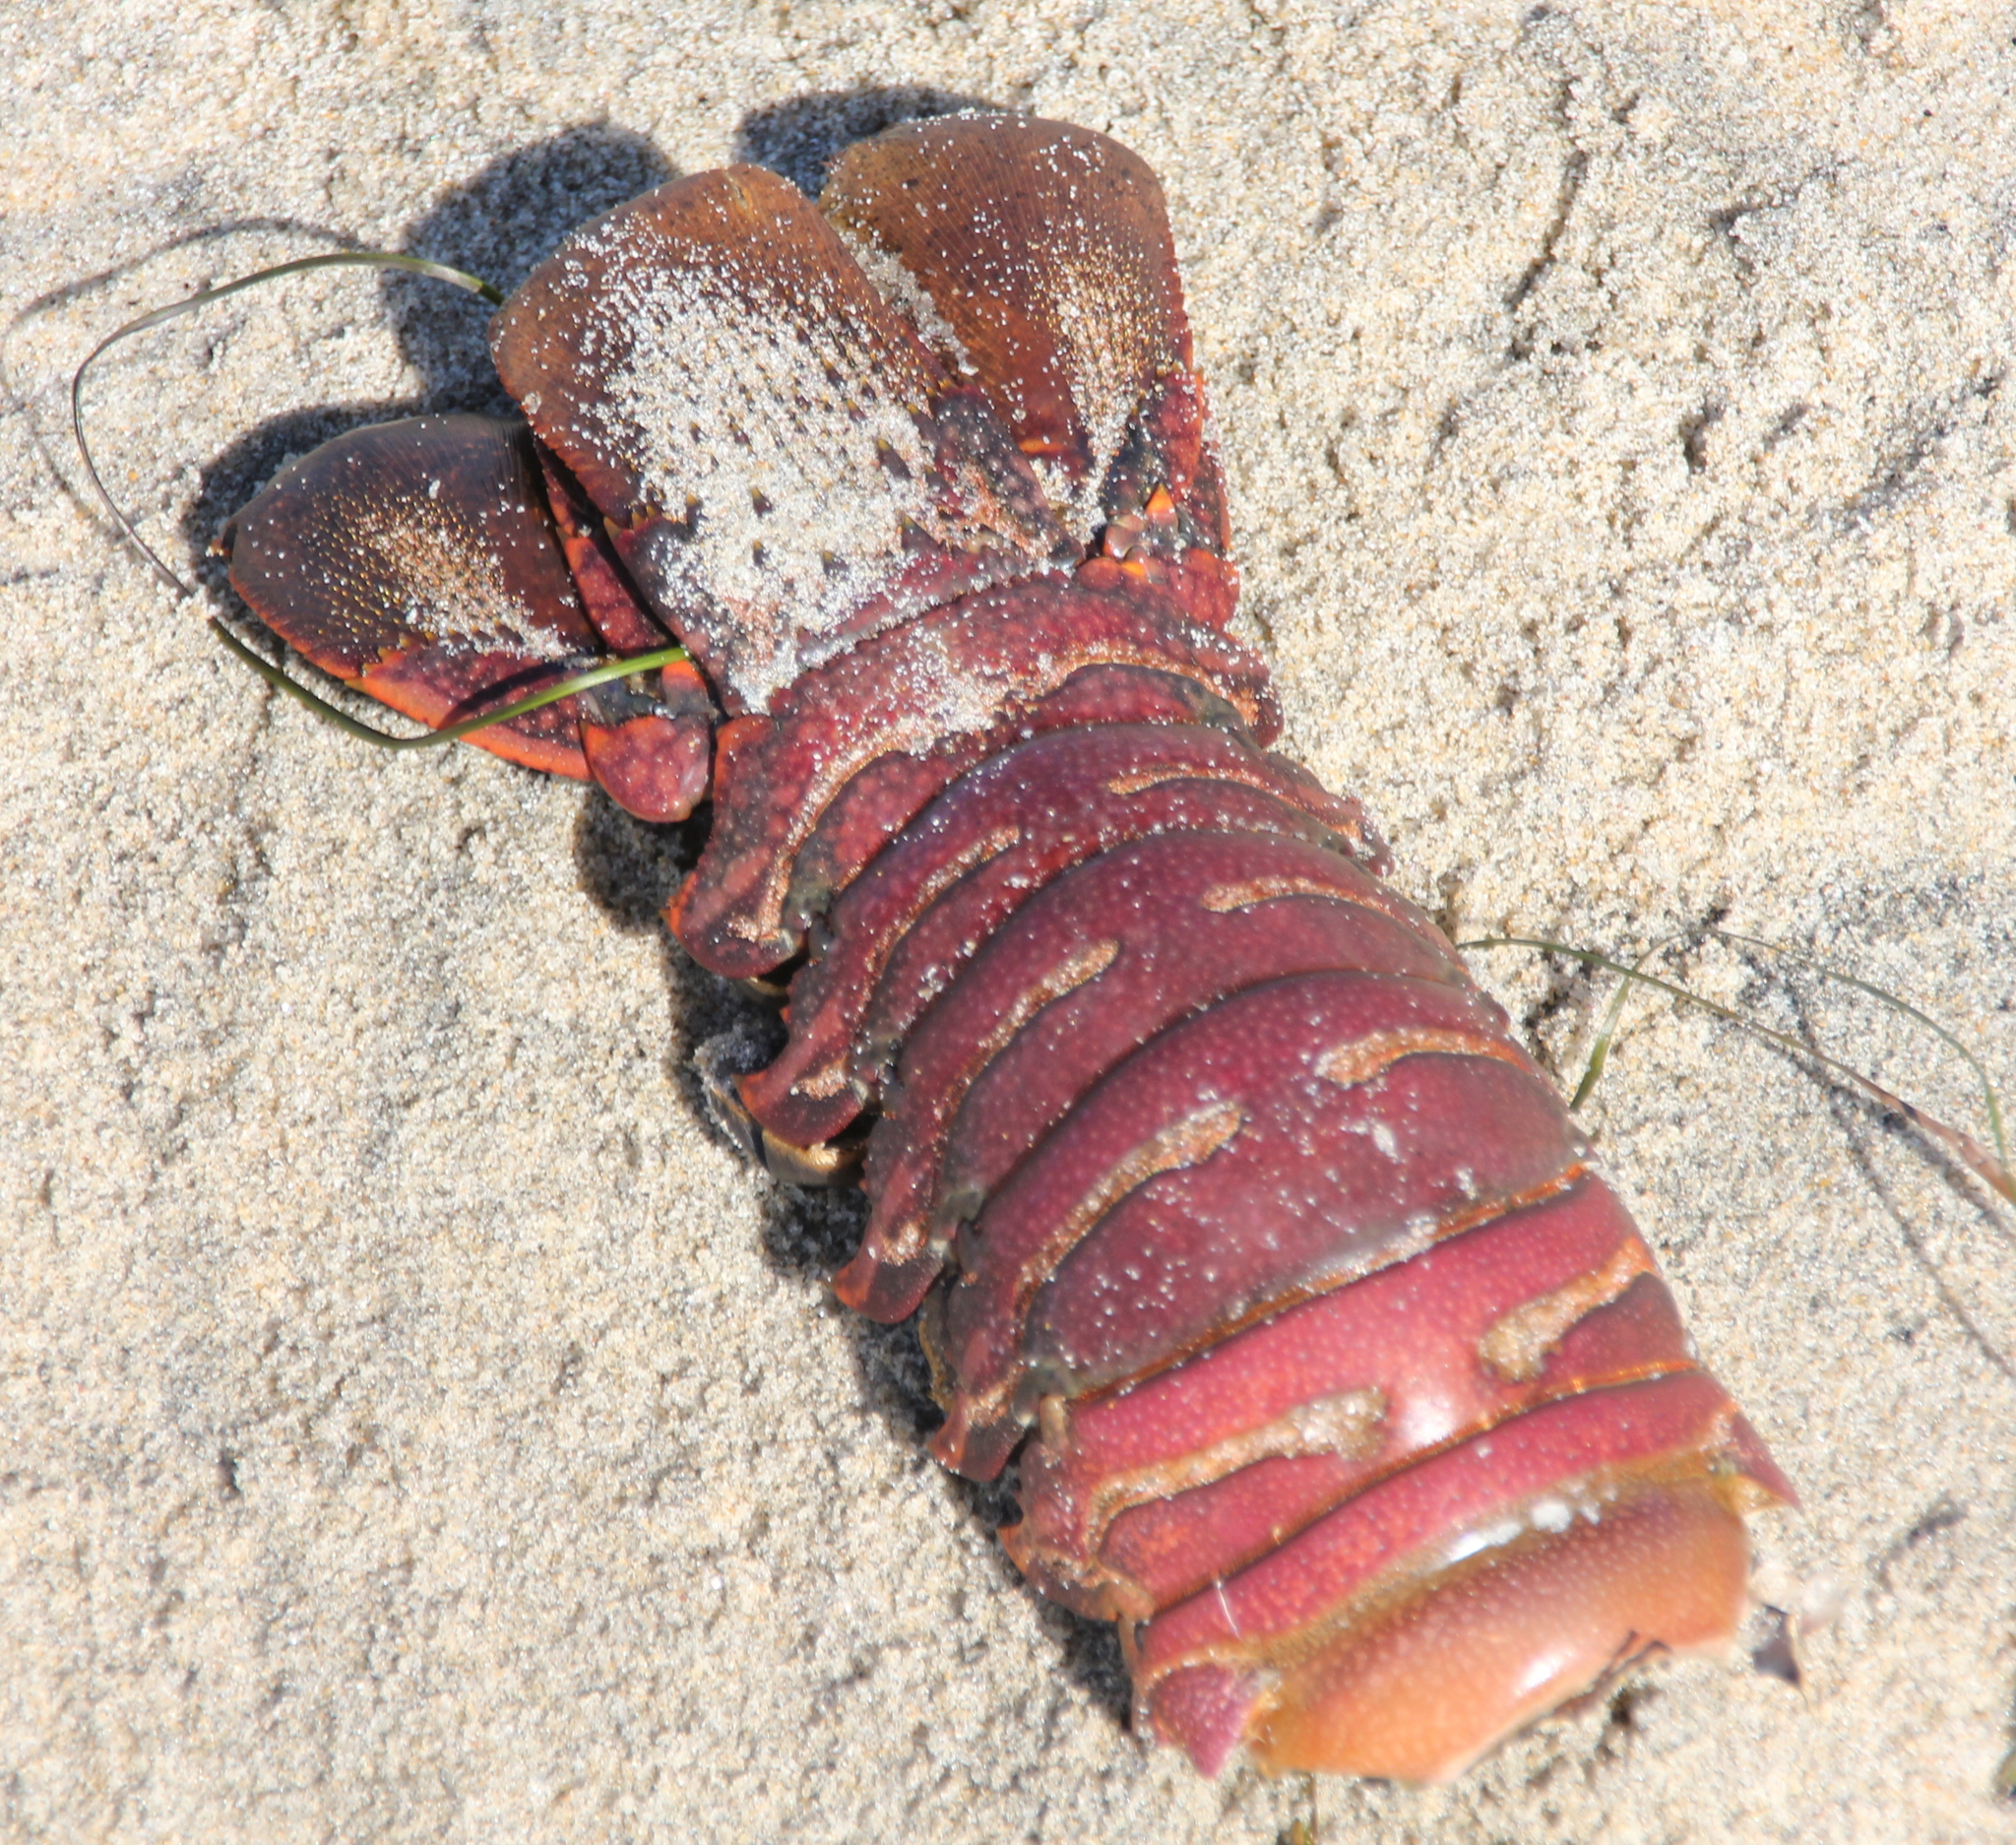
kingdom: Animalia
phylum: Arthropoda
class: Malacostraca
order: Decapoda
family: Palinuridae
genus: Panulirus
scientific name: Panulirus interruptus
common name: California spiny lobster
